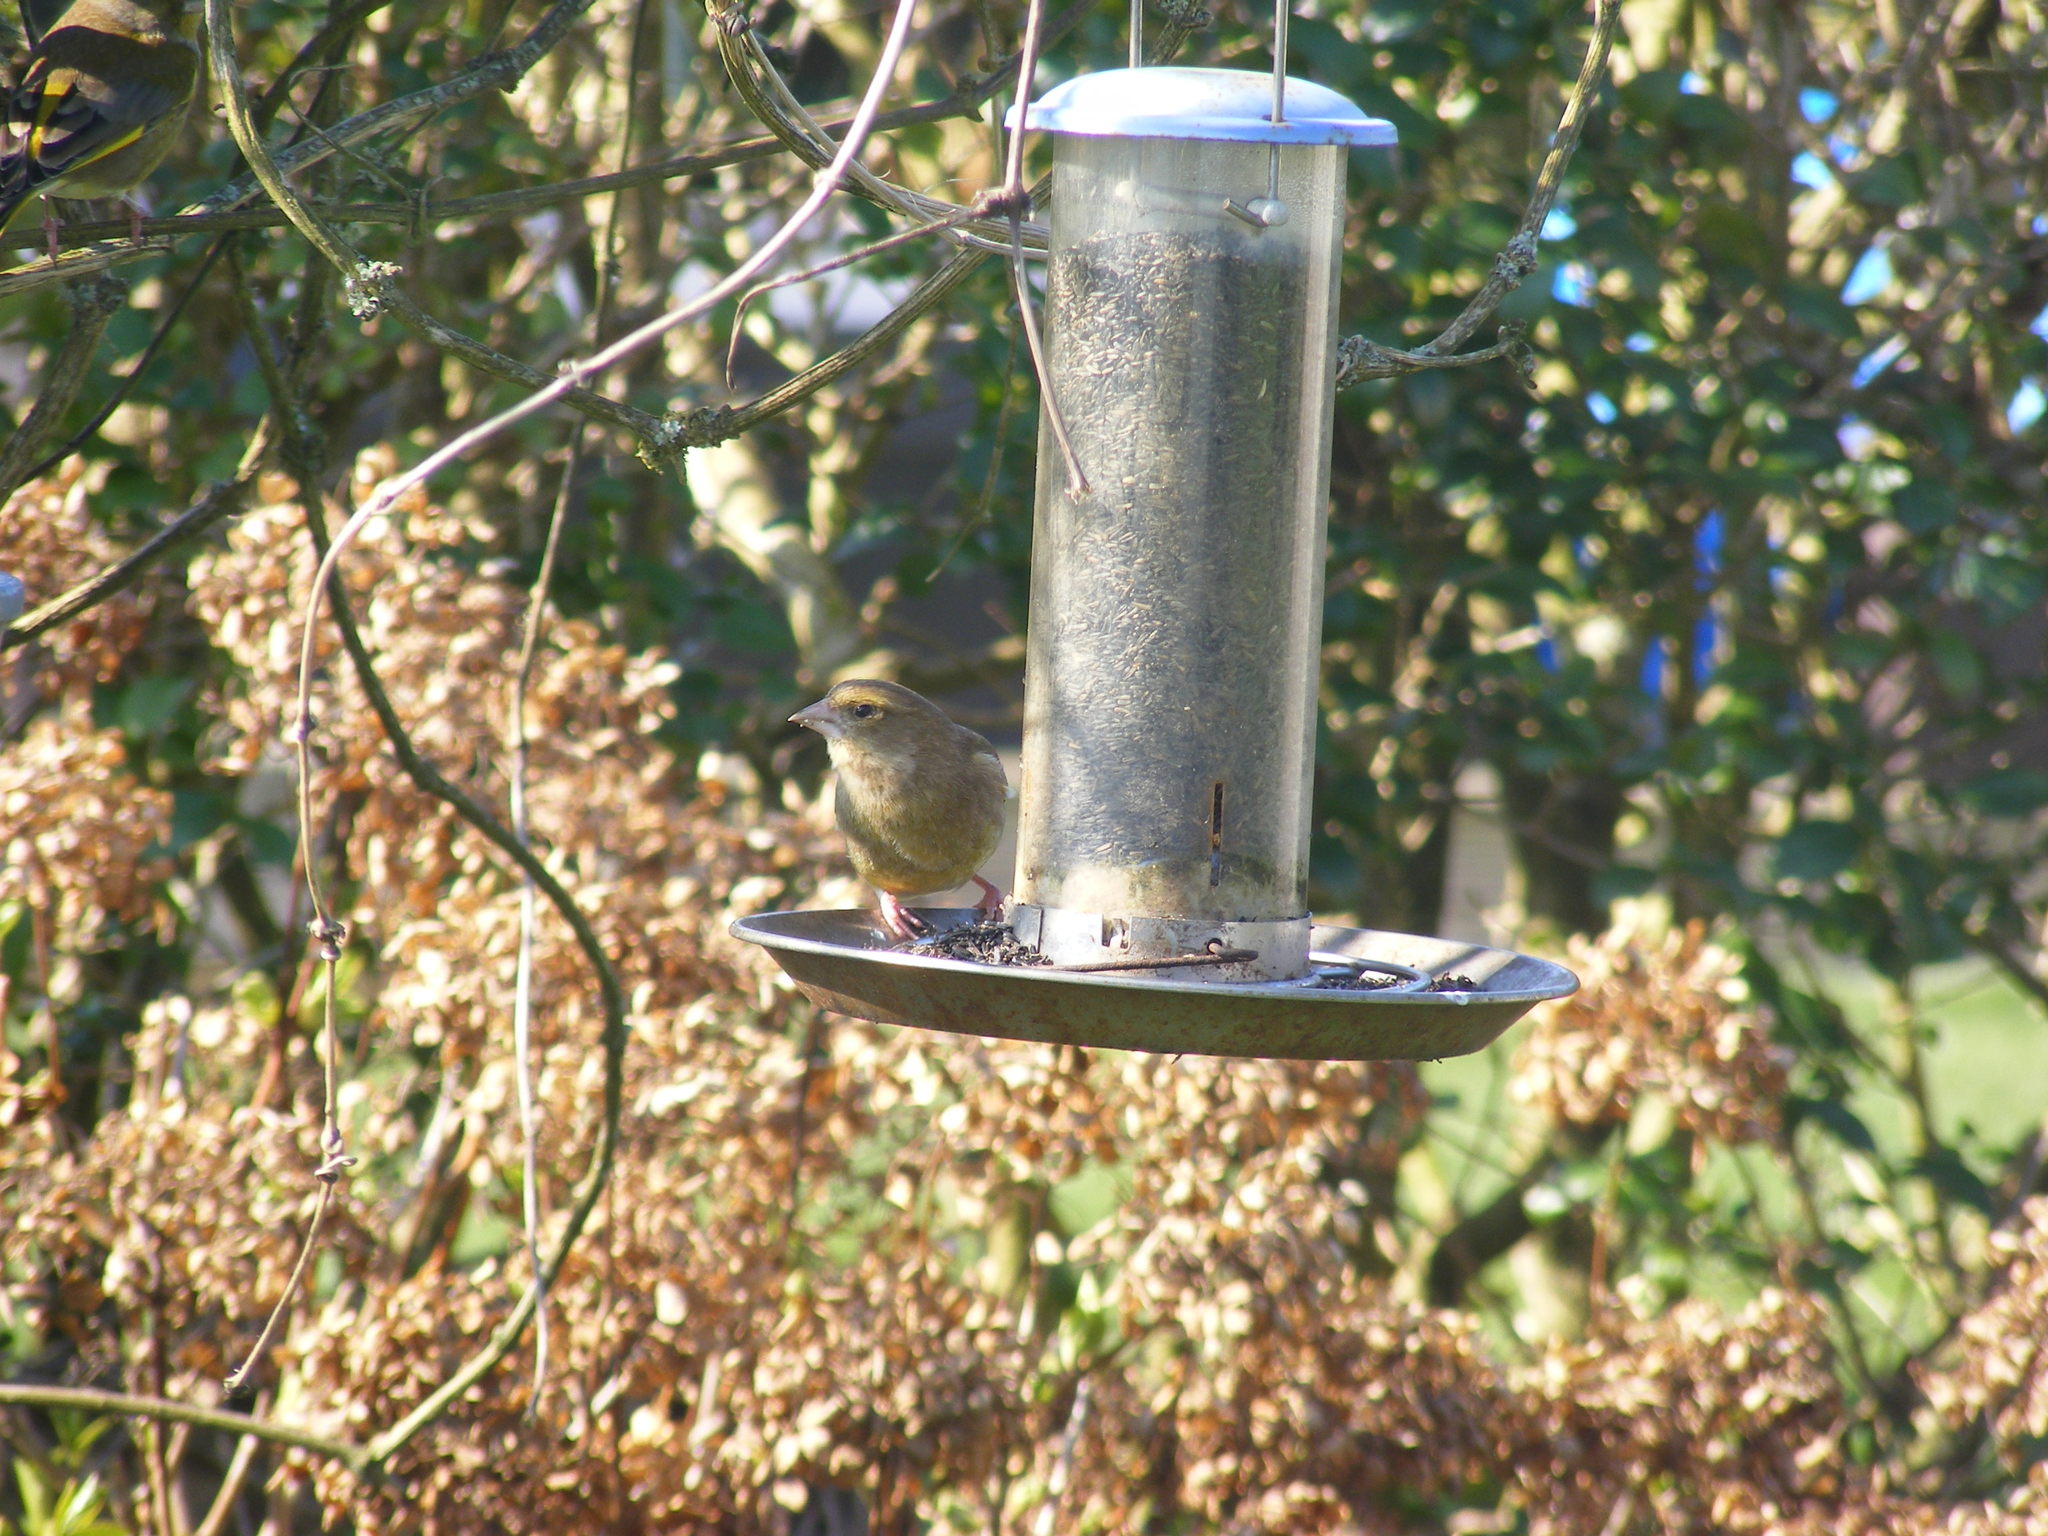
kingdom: Plantae
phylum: Tracheophyta
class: Liliopsida
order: Poales
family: Poaceae
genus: Chloris
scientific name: Chloris chloris
